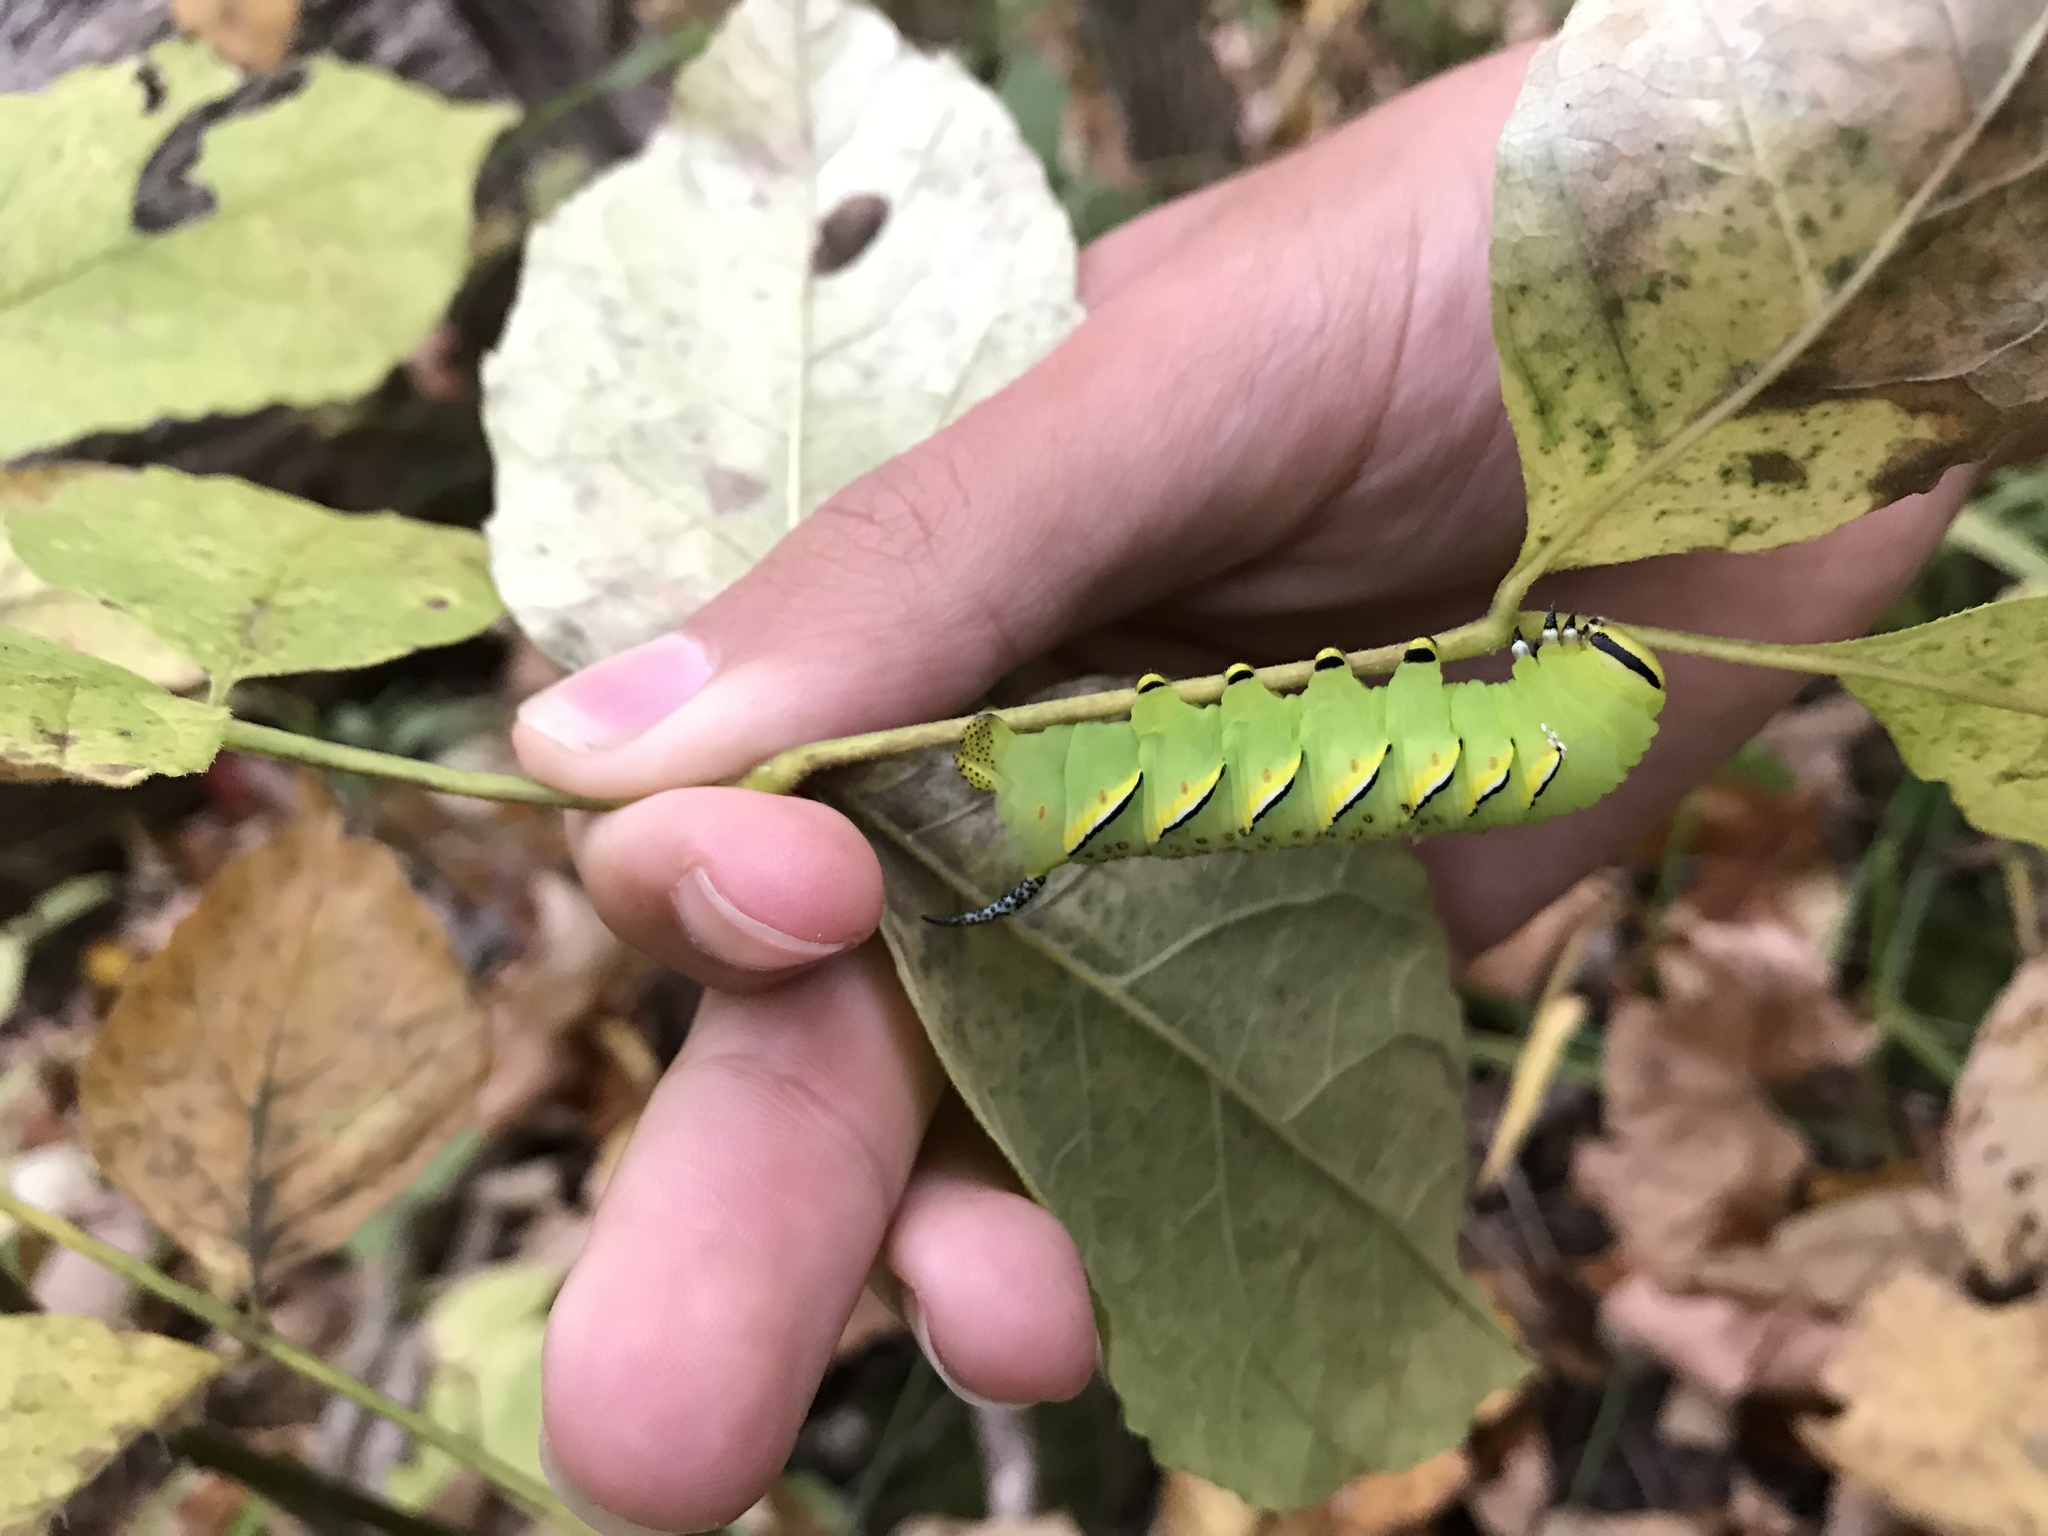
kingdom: Animalia
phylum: Arthropoda
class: Insecta
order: Lepidoptera
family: Sphingidae
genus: Sphinx
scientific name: Sphinx kalmiae
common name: Laurel sphinx
